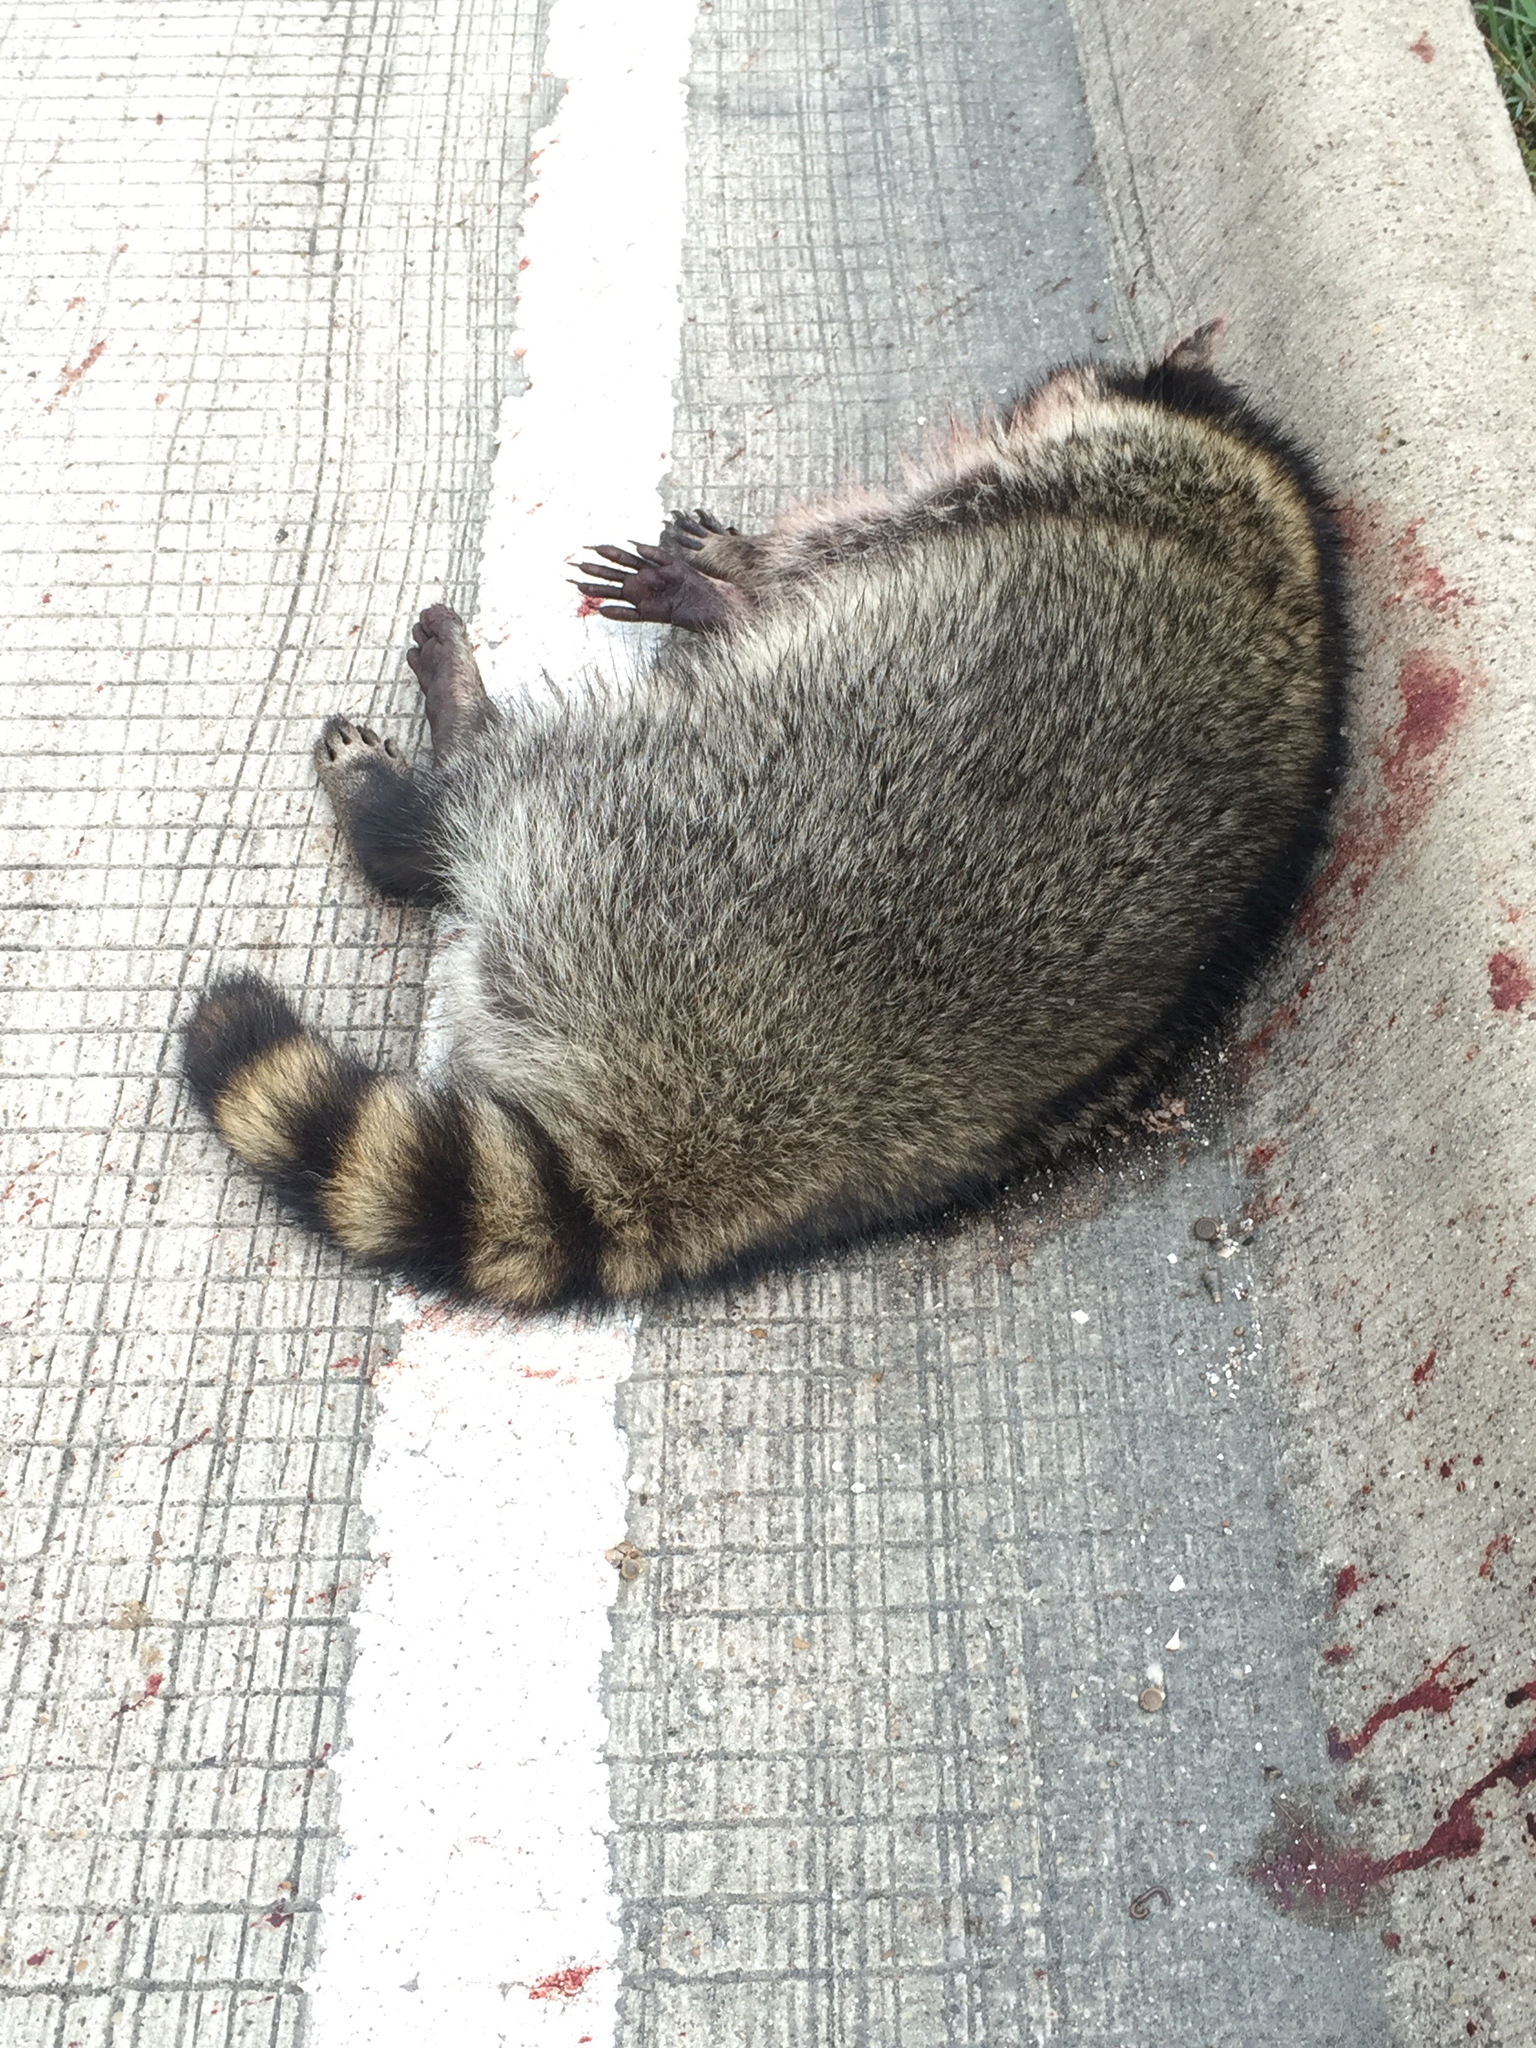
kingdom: Animalia
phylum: Chordata
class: Mammalia
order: Carnivora
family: Procyonidae
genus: Procyon
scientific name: Procyon lotor
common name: Raccoon
